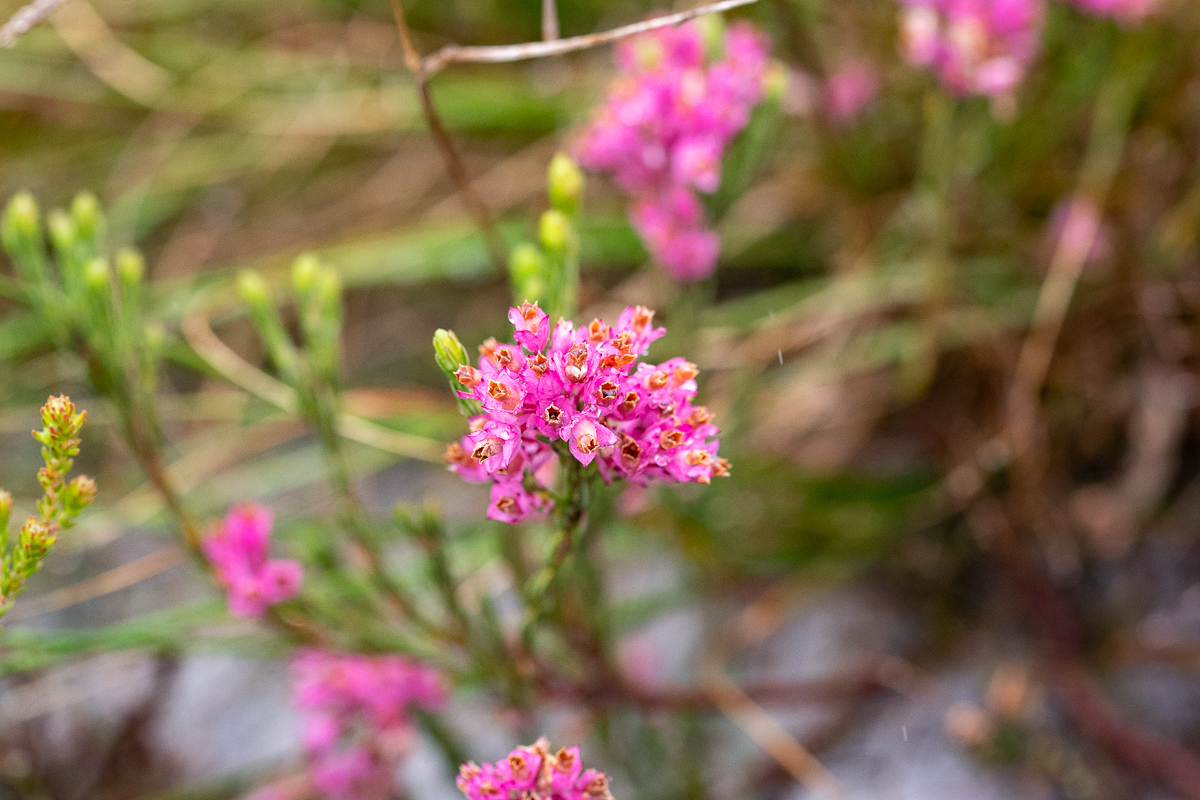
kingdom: Plantae
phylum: Tracheophyta
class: Magnoliopsida
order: Ericales
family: Ericaceae
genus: Erica
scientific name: Erica corifolia
